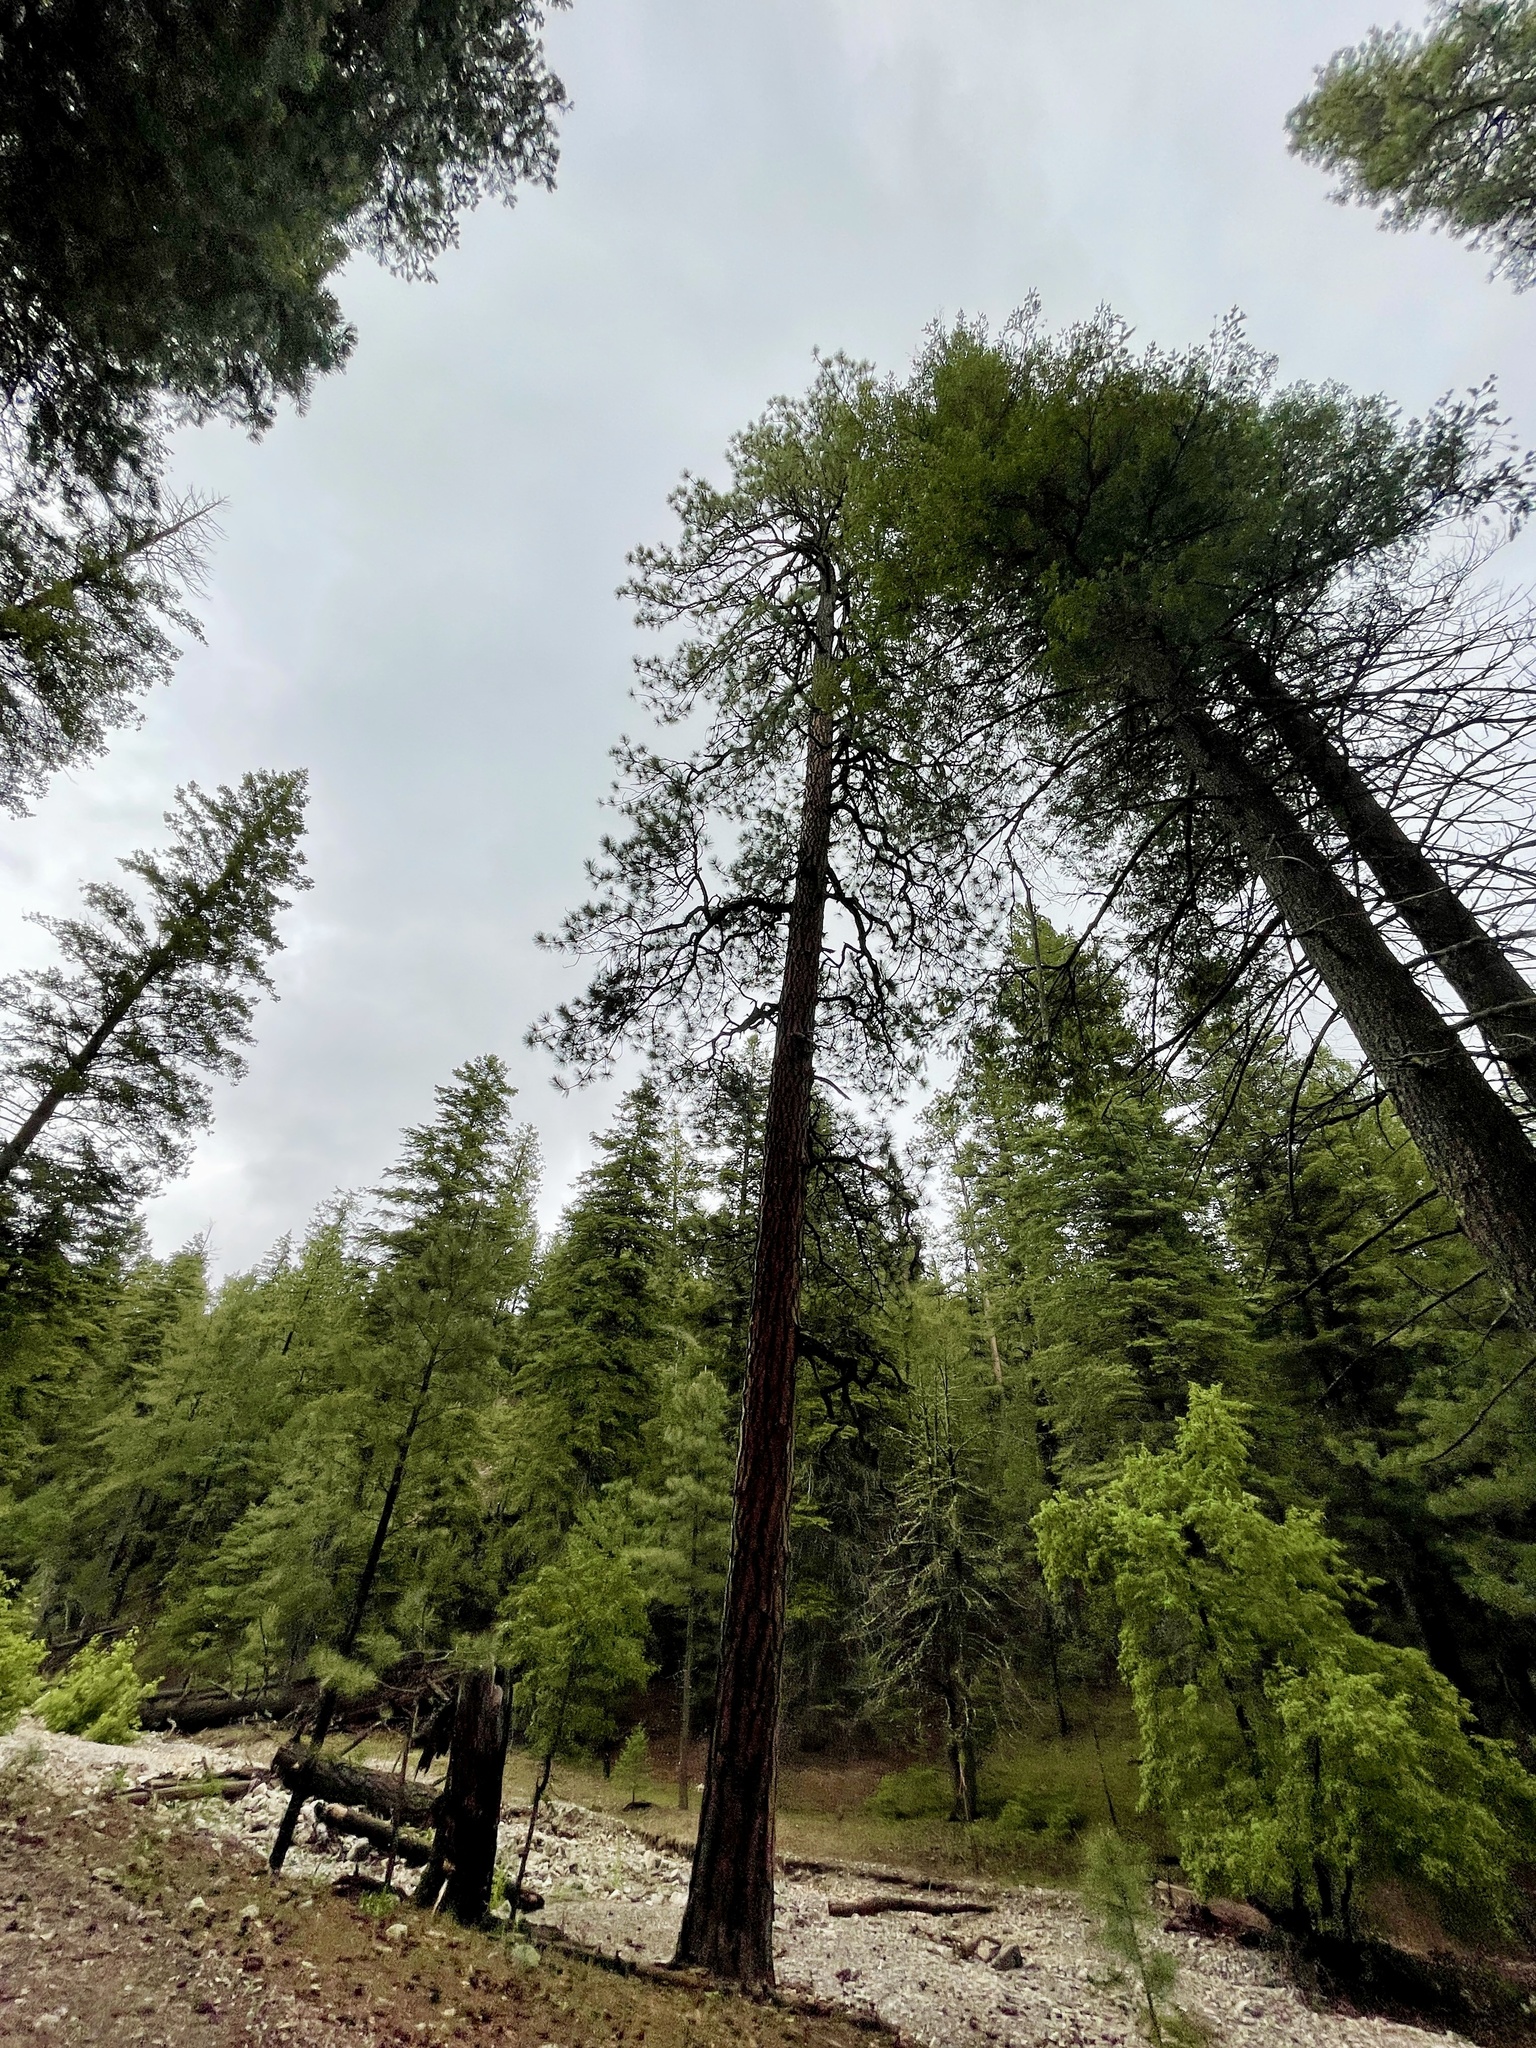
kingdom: Plantae
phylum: Tracheophyta
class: Pinopsida
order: Pinales
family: Pinaceae
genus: Pinus
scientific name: Pinus ponderosa
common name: Western yellow-pine
